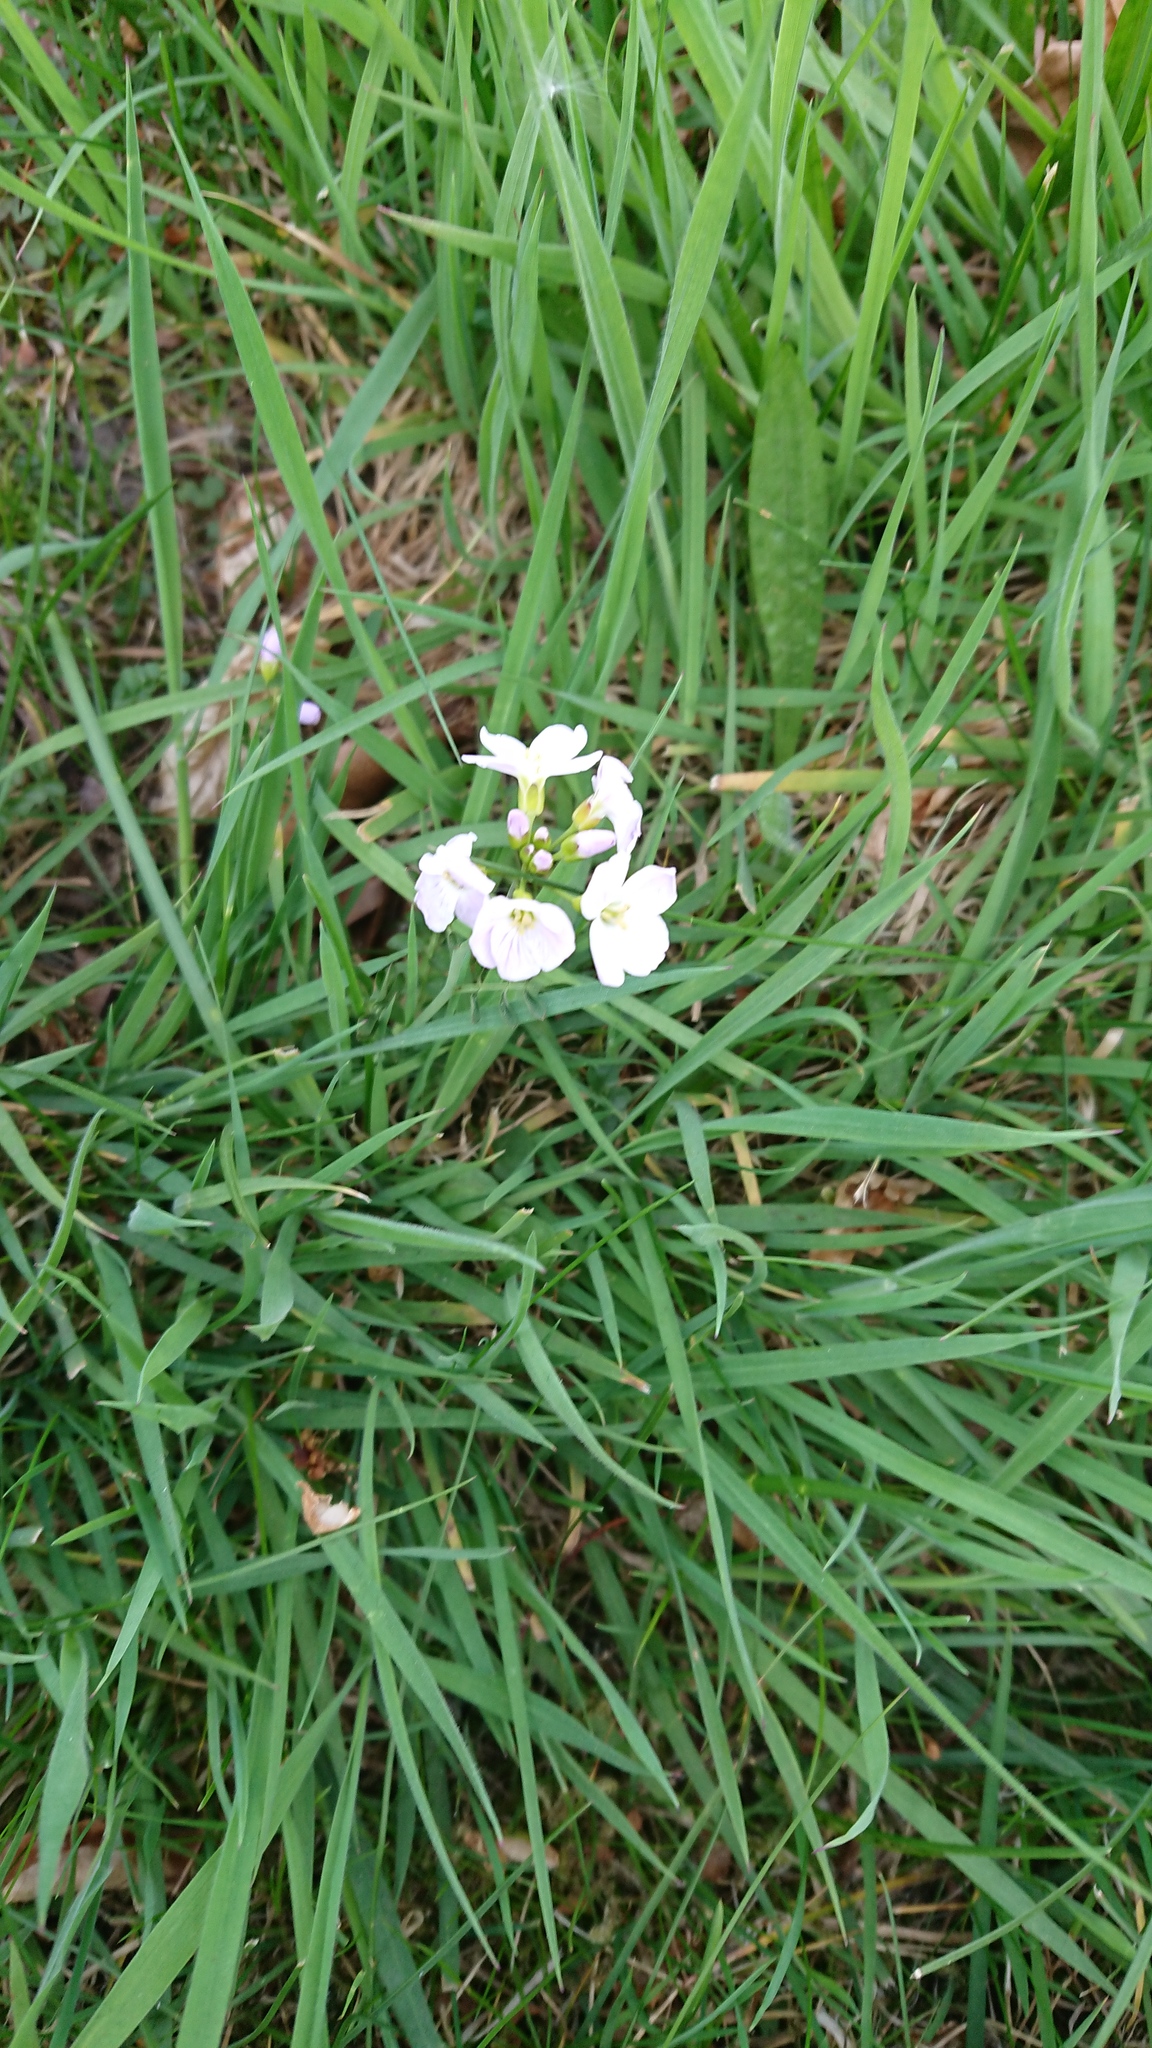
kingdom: Plantae
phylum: Tracheophyta
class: Magnoliopsida
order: Brassicales
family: Brassicaceae
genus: Cardamine
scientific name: Cardamine pratensis
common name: Cuckoo flower
